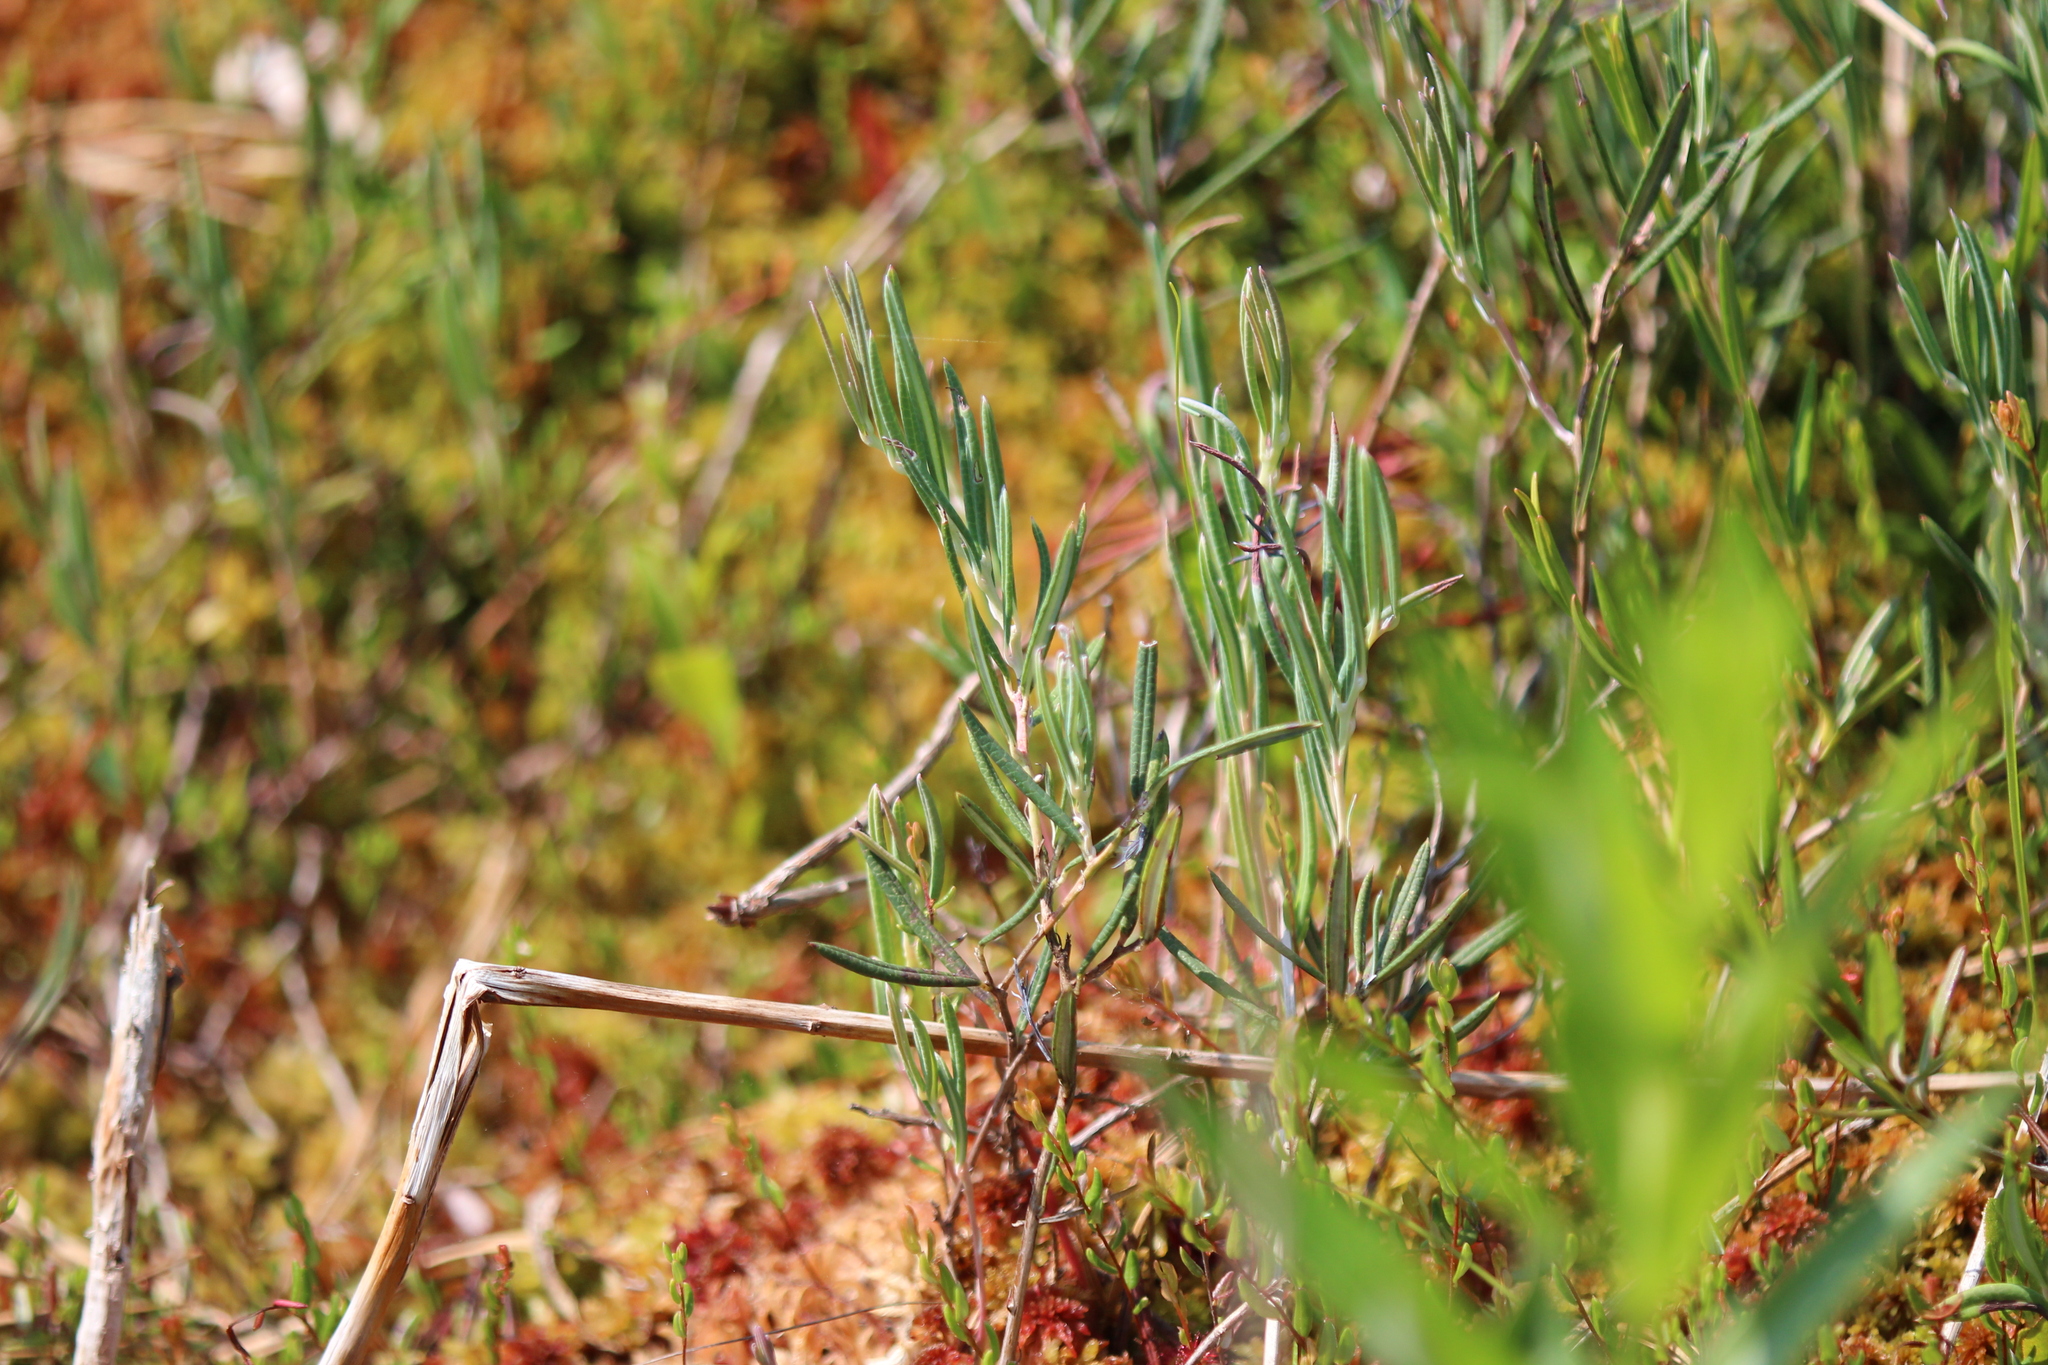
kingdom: Plantae
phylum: Tracheophyta
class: Magnoliopsida
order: Ericales
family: Ericaceae
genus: Andromeda
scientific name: Andromeda polifolia
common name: Bog-rosemary
